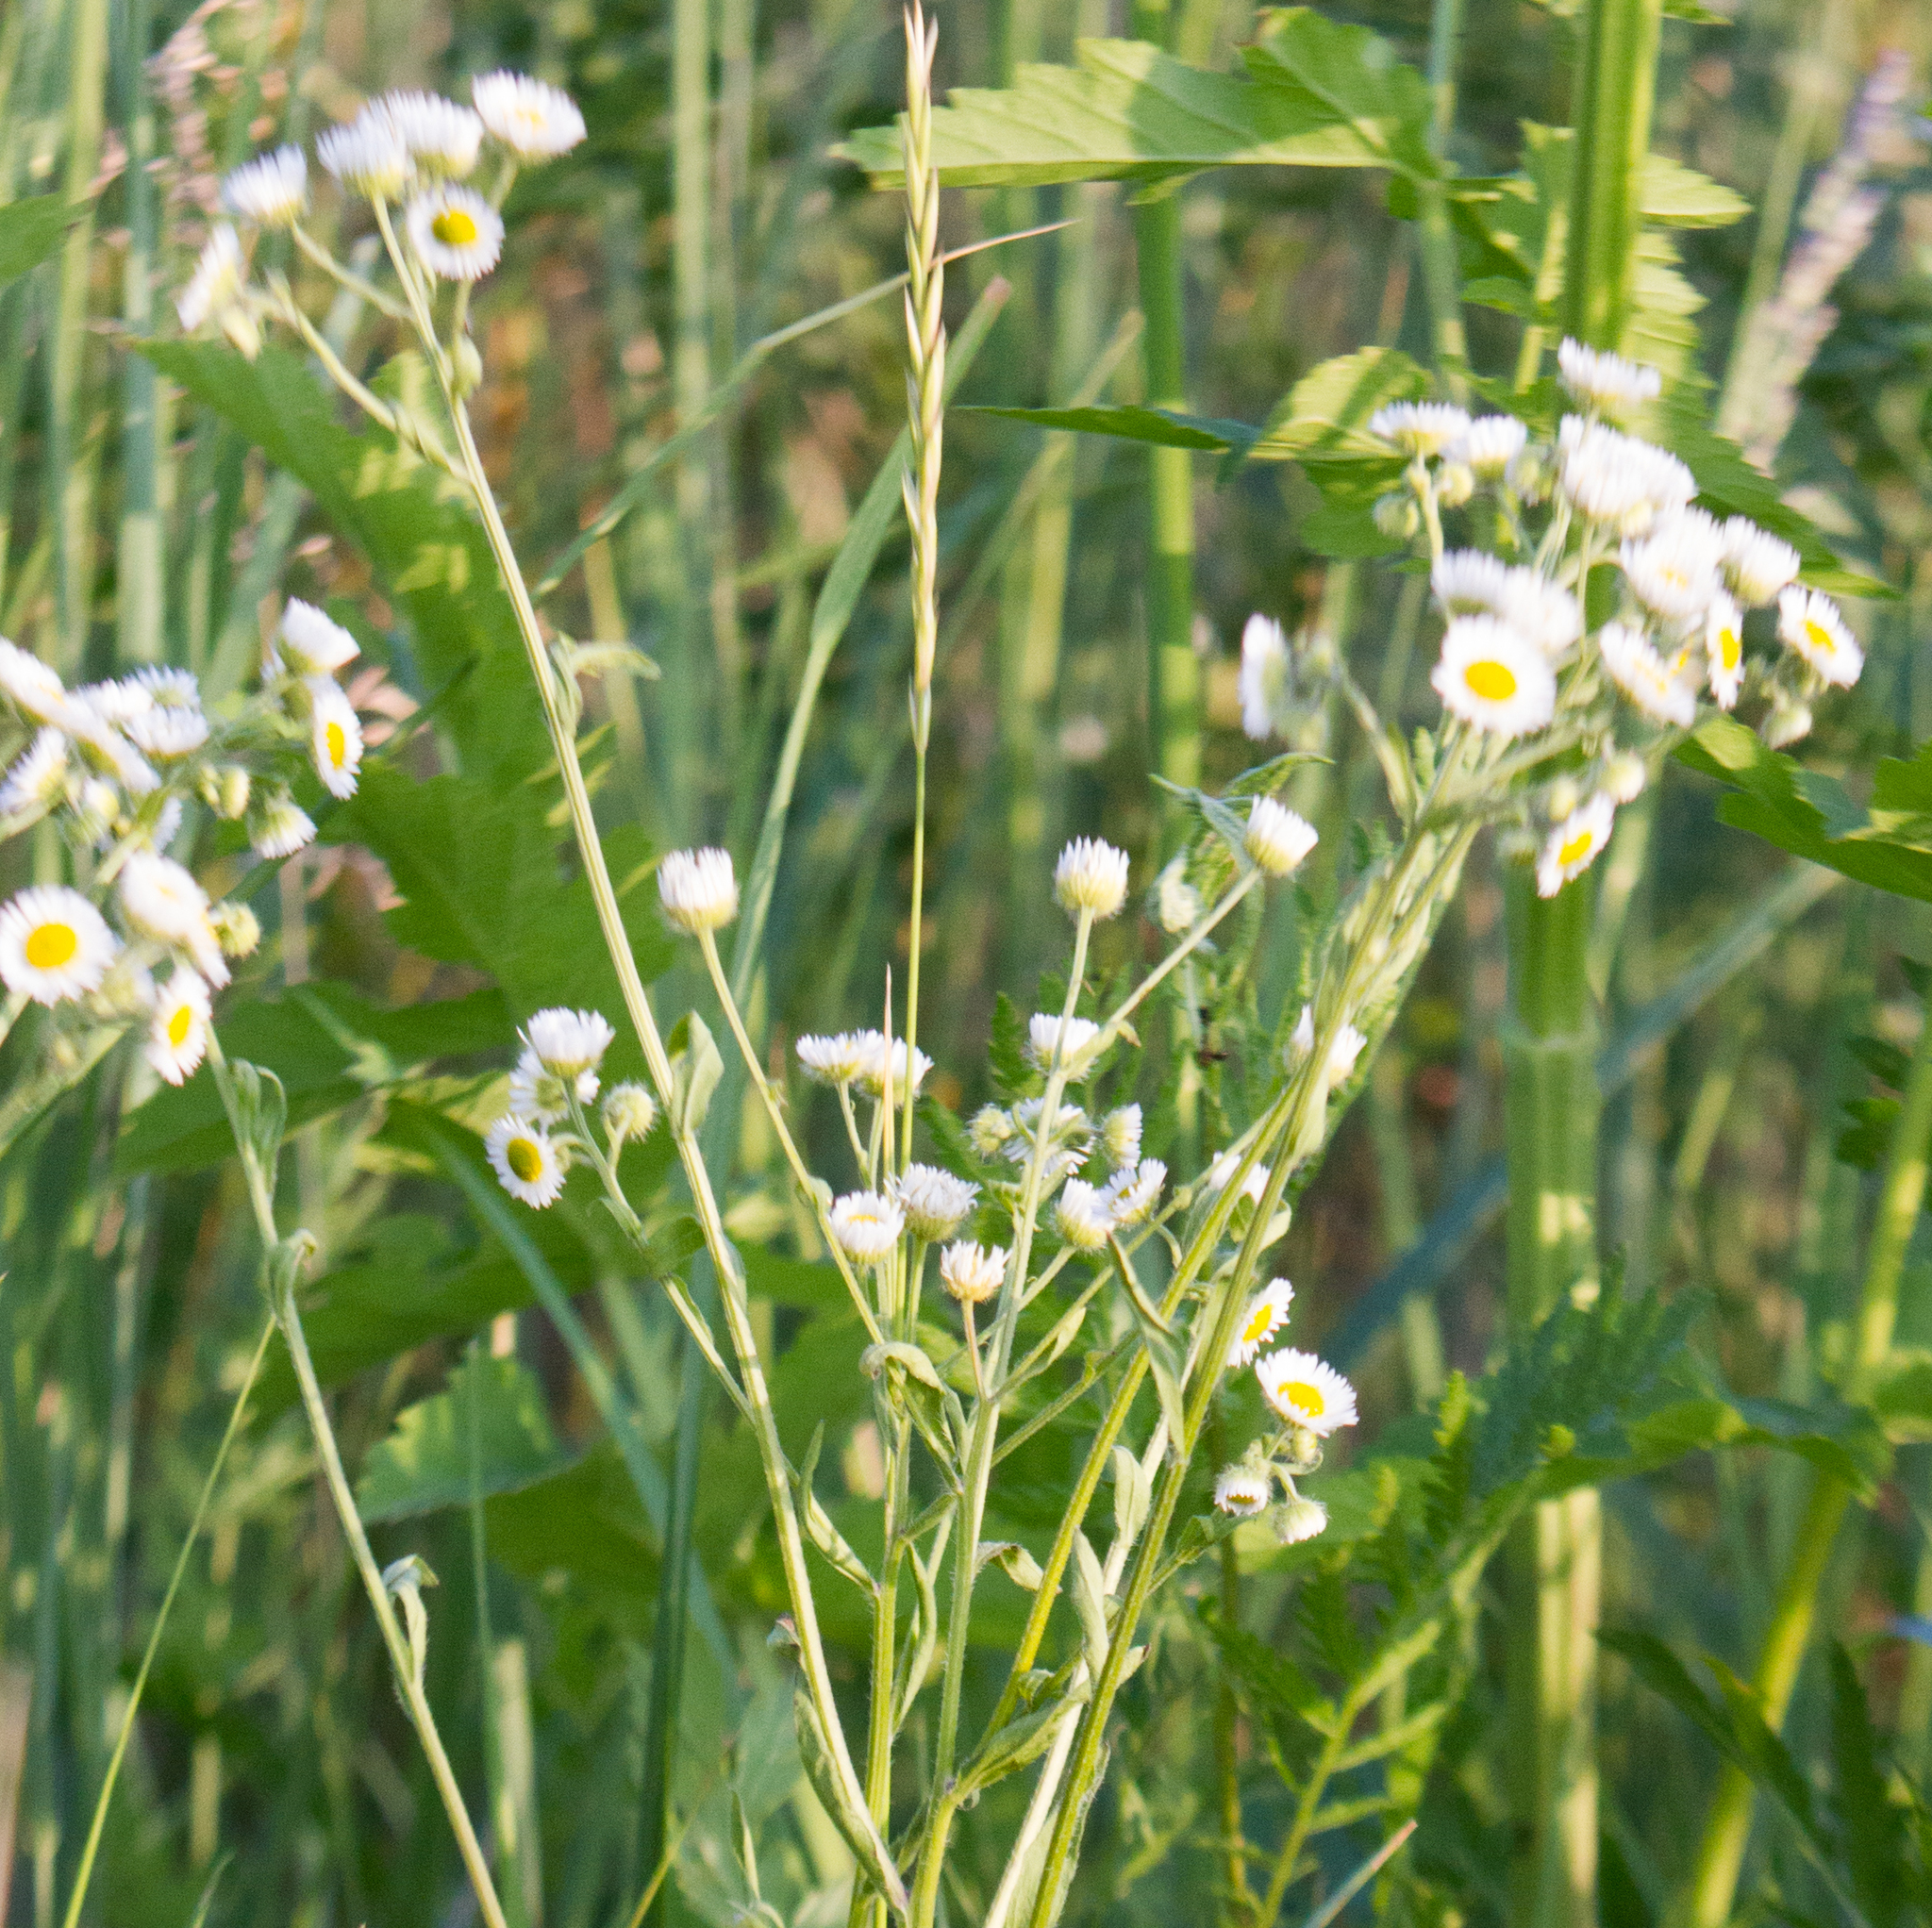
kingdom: Plantae
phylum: Tracheophyta
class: Magnoliopsida
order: Asterales
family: Asteraceae
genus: Erigeron
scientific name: Erigeron strigosus
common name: Common eastern fleabane
